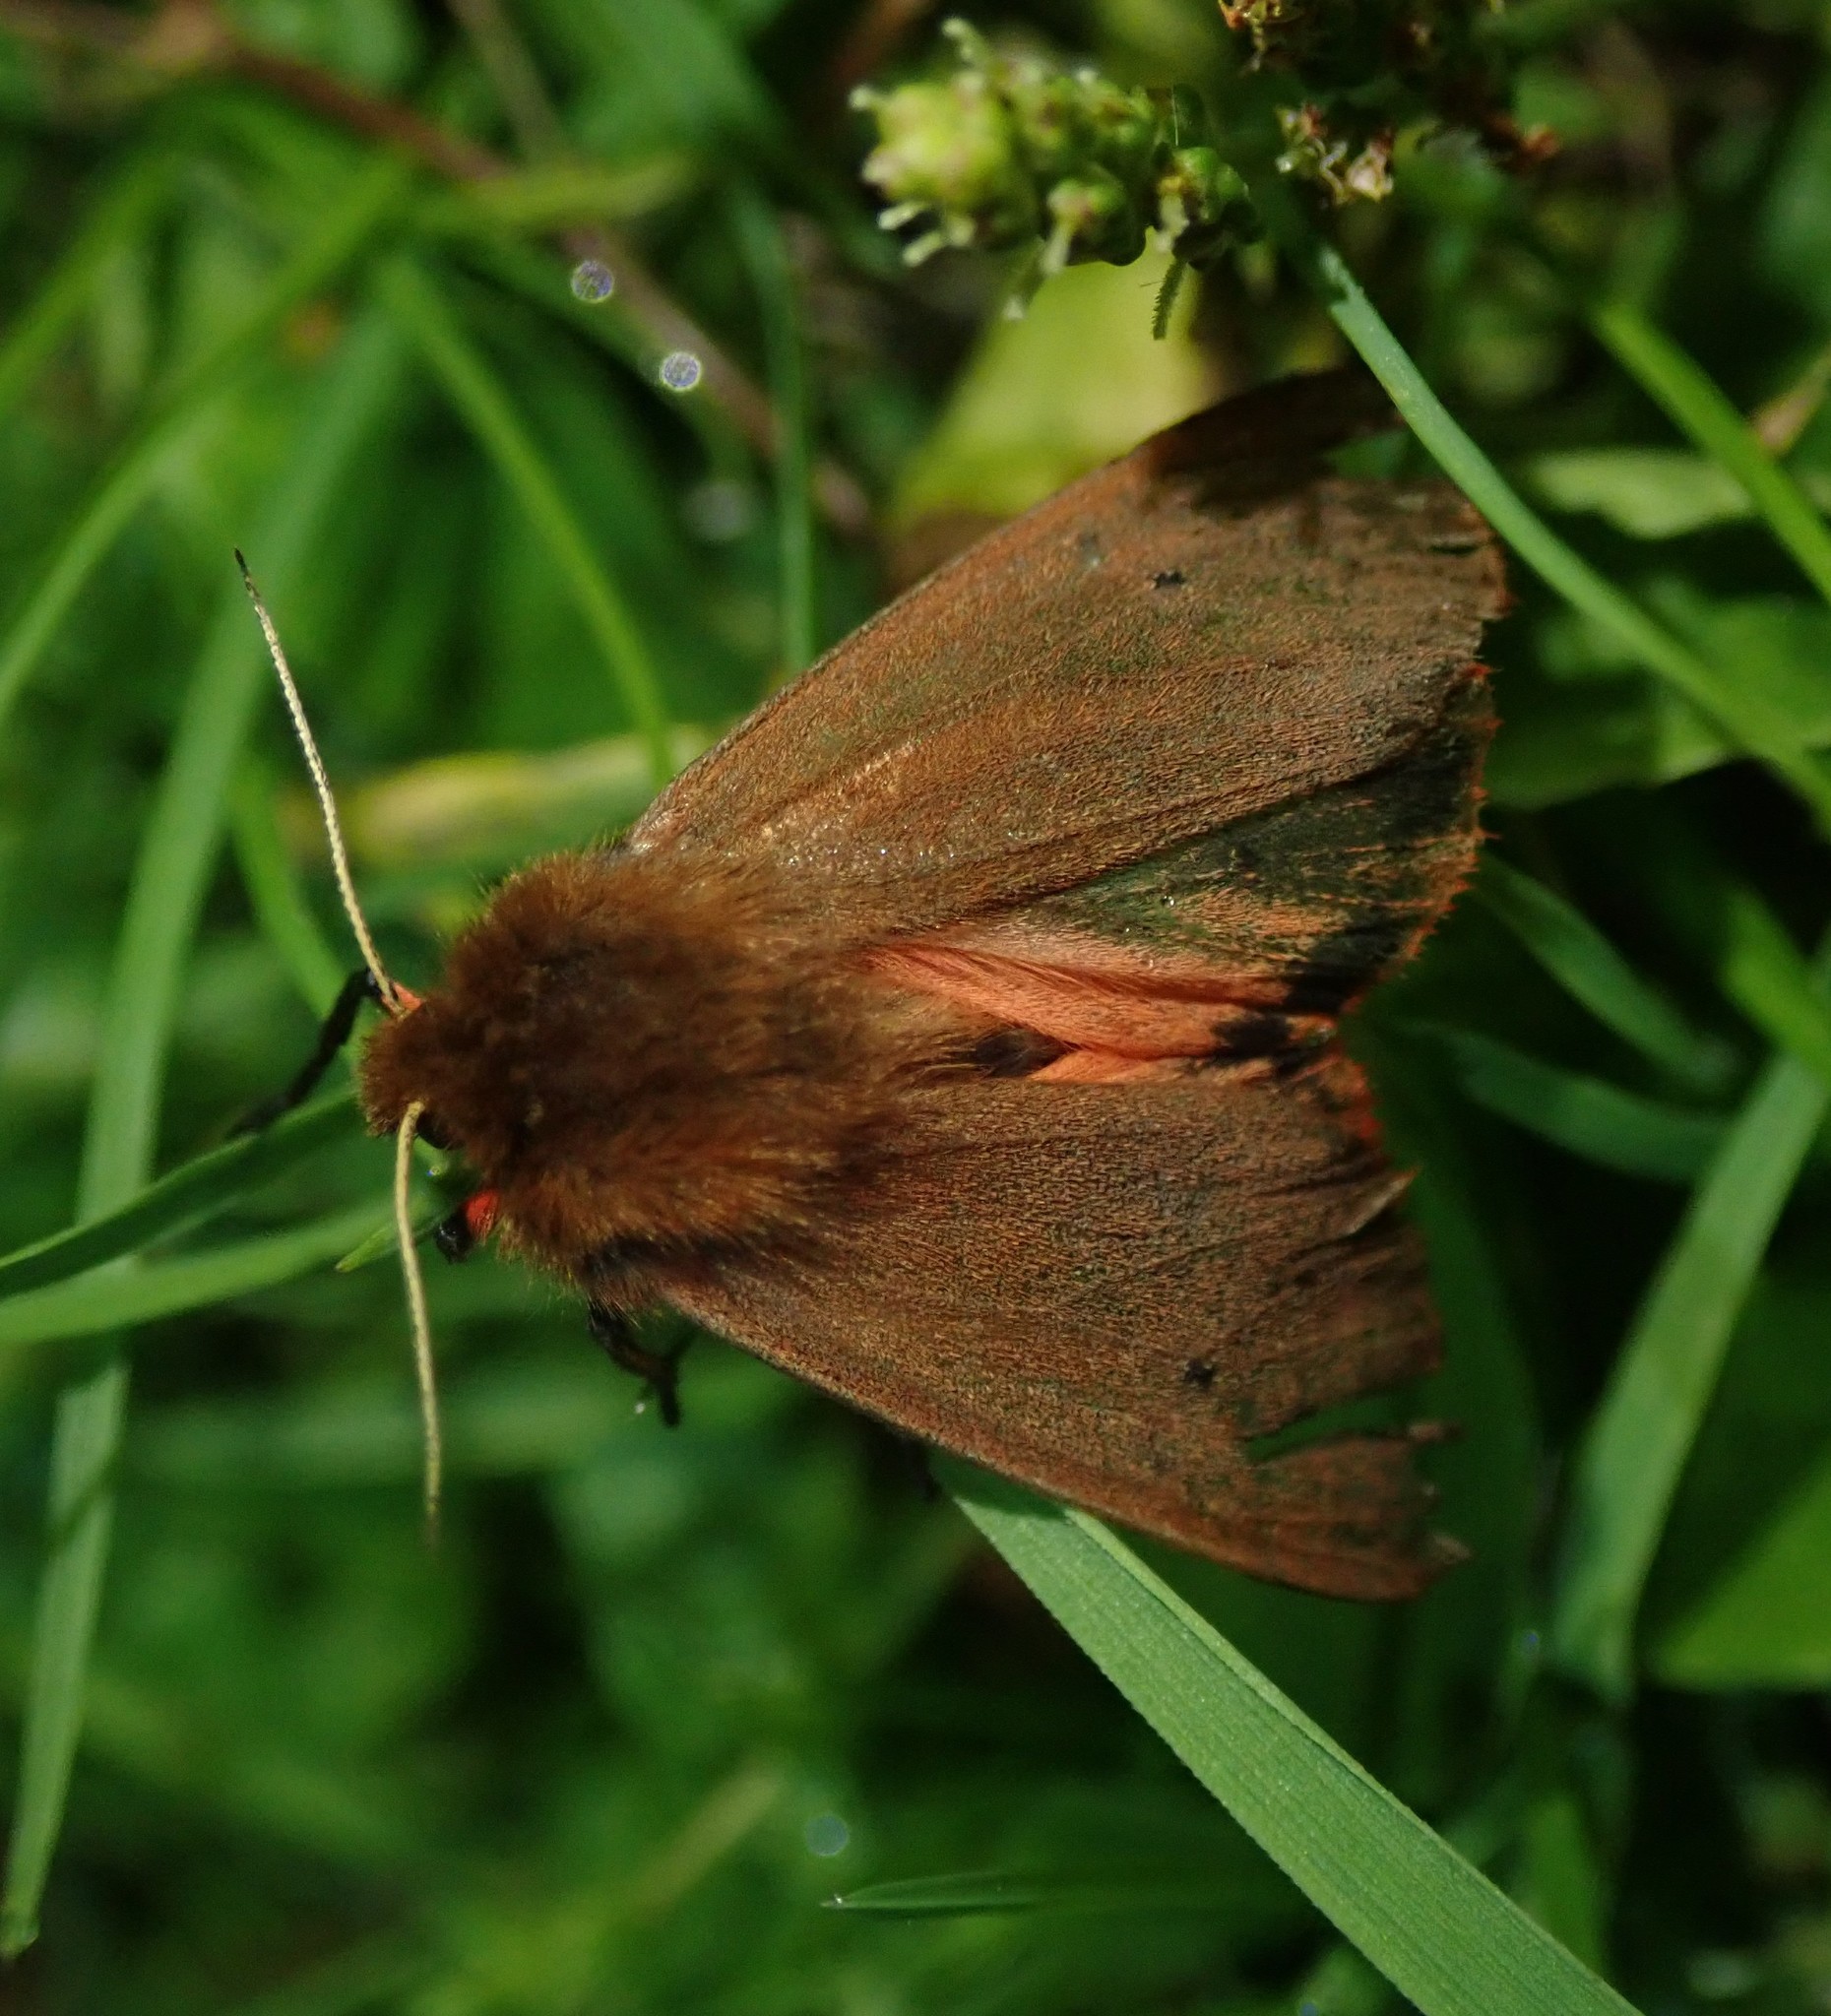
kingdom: Animalia
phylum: Arthropoda
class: Insecta
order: Lepidoptera
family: Erebidae
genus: Phragmatobia
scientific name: Phragmatobia fuliginosa
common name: Ruby tiger
